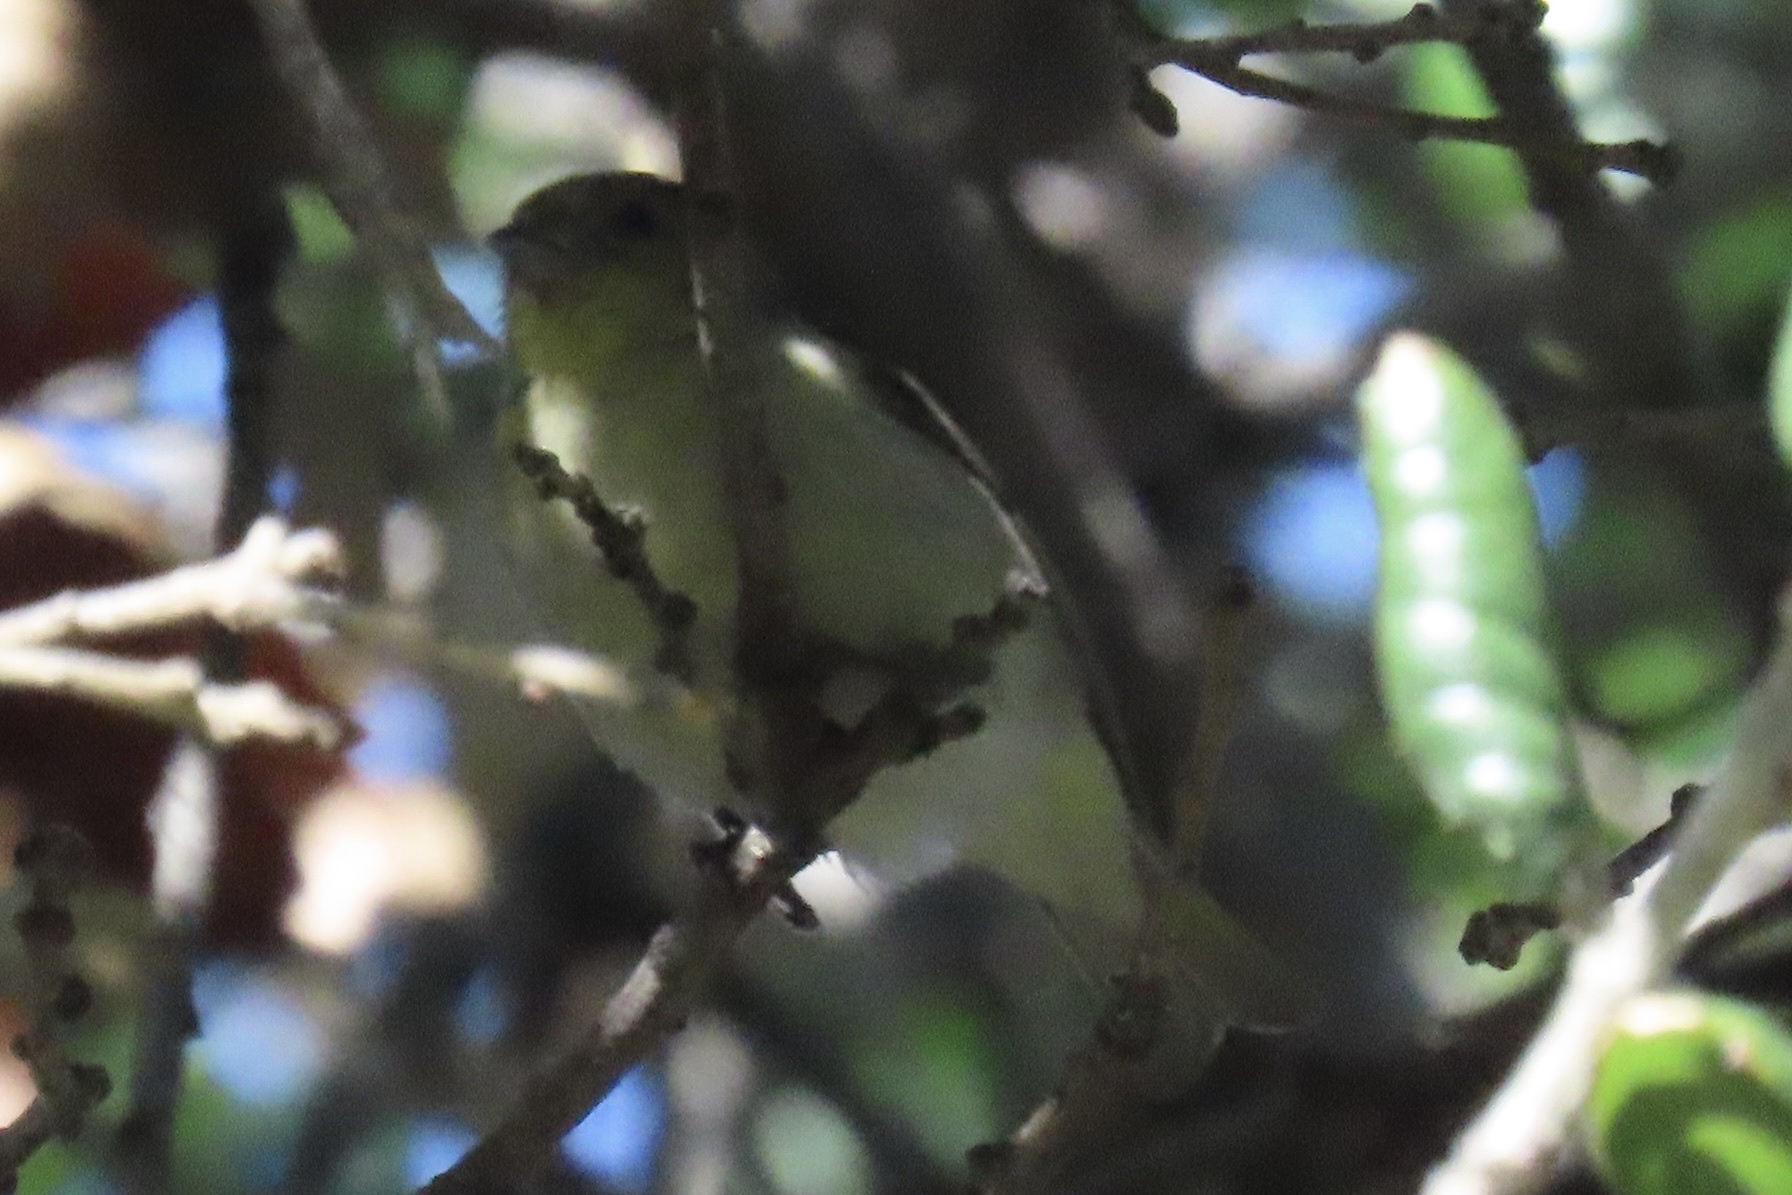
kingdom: Animalia
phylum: Chordata
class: Aves
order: Passeriformes
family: Fringillidae
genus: Spinus
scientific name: Spinus psaltria
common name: Lesser goldfinch
